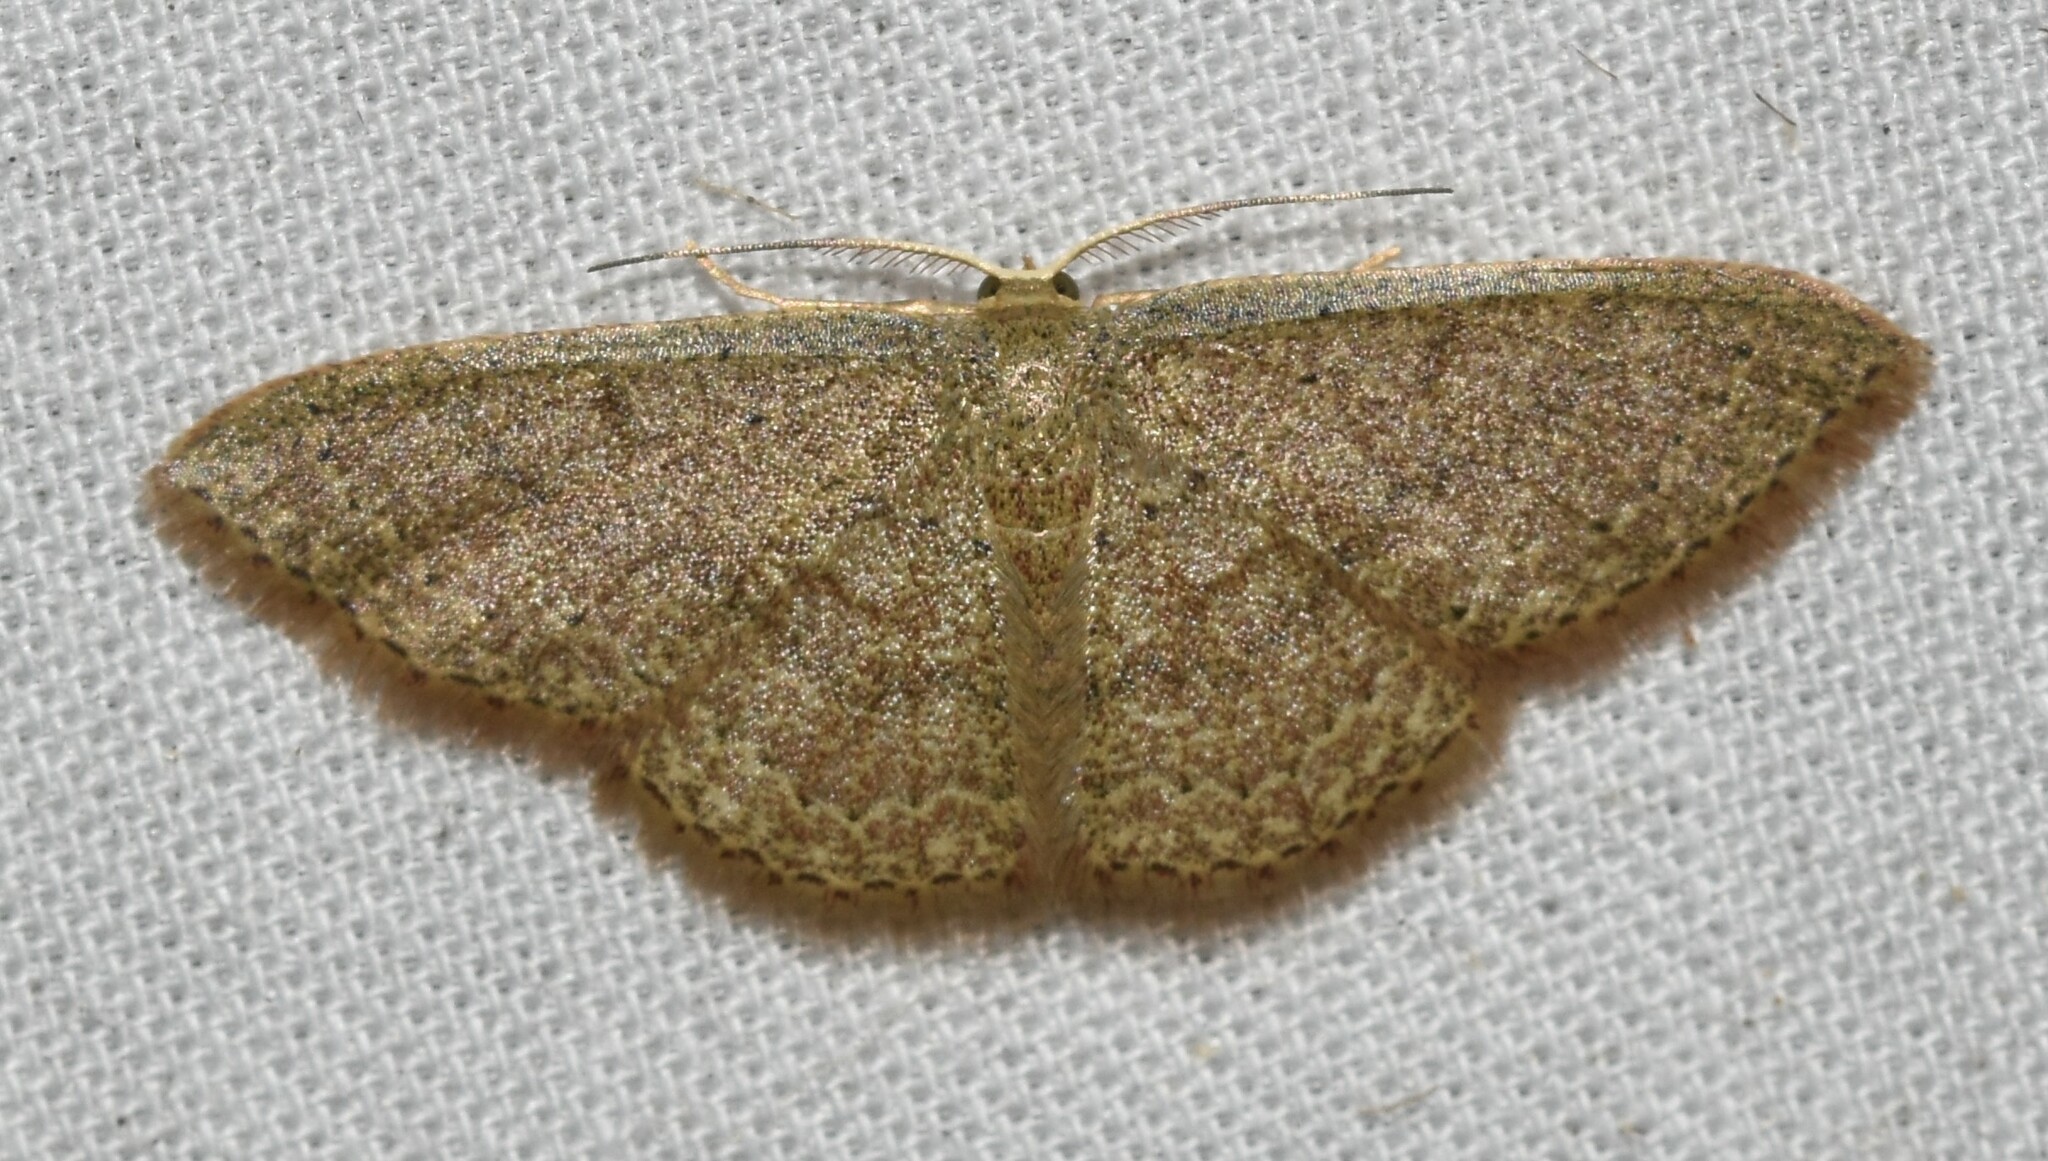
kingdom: Animalia
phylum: Arthropoda
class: Insecta
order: Lepidoptera
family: Geometridae
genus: Pleuroprucha
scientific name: Pleuroprucha insulsaria
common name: Common tan wave
